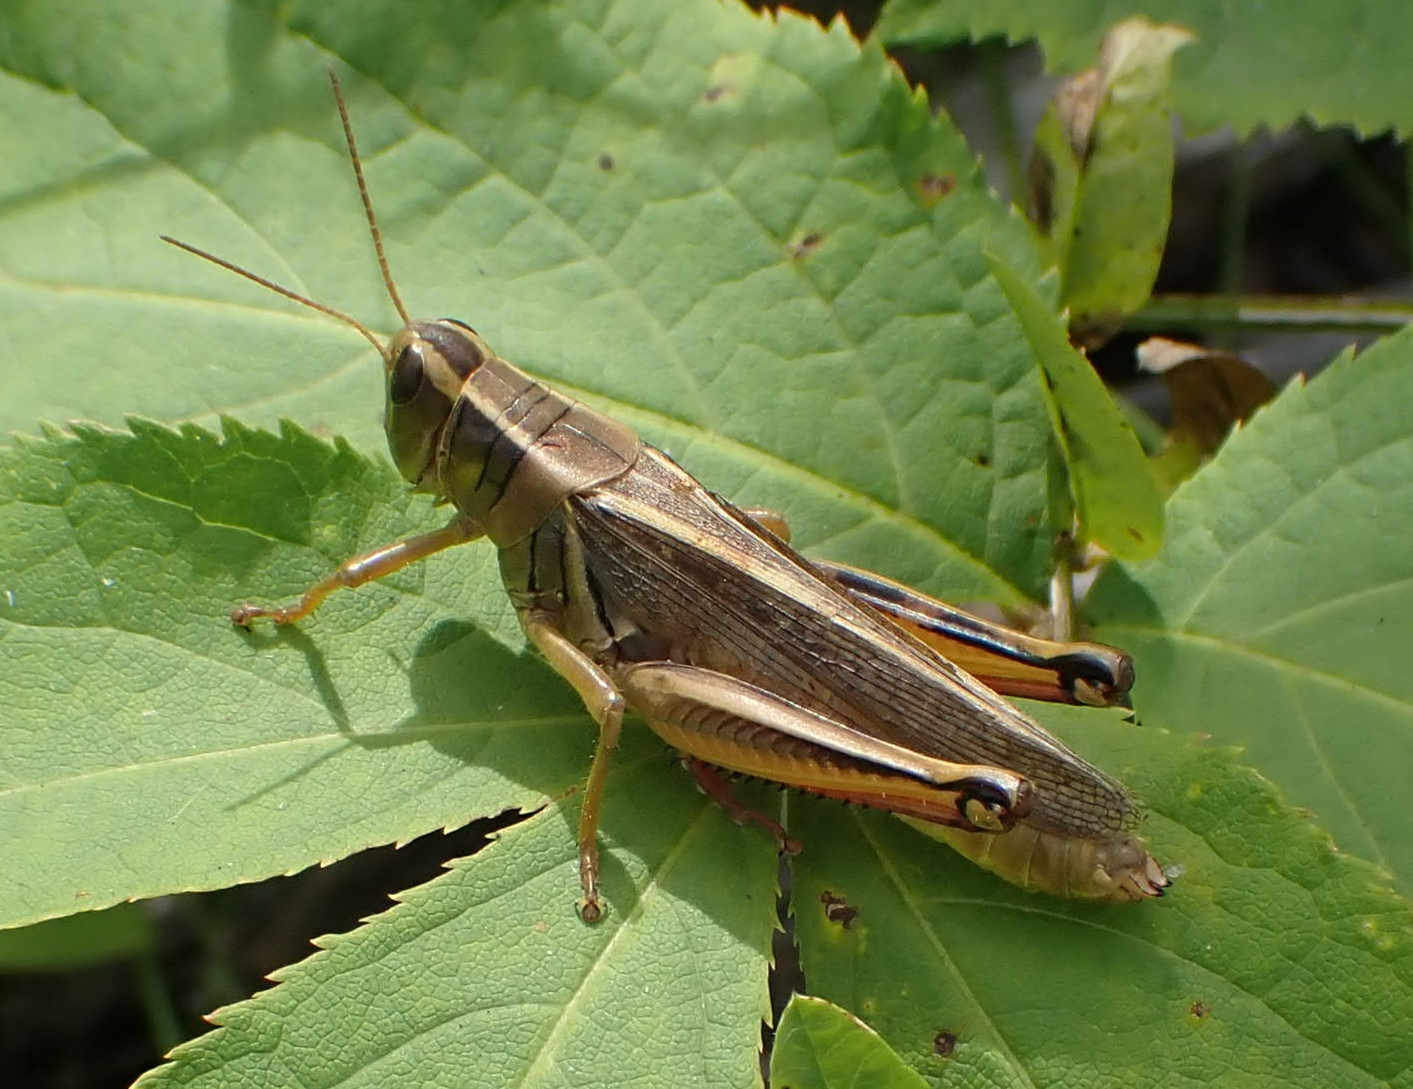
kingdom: Animalia
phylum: Arthropoda
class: Insecta
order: Orthoptera
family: Acrididae
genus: Melanoplus
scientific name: Melanoplus bivittatus
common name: Two-striped grasshopper
